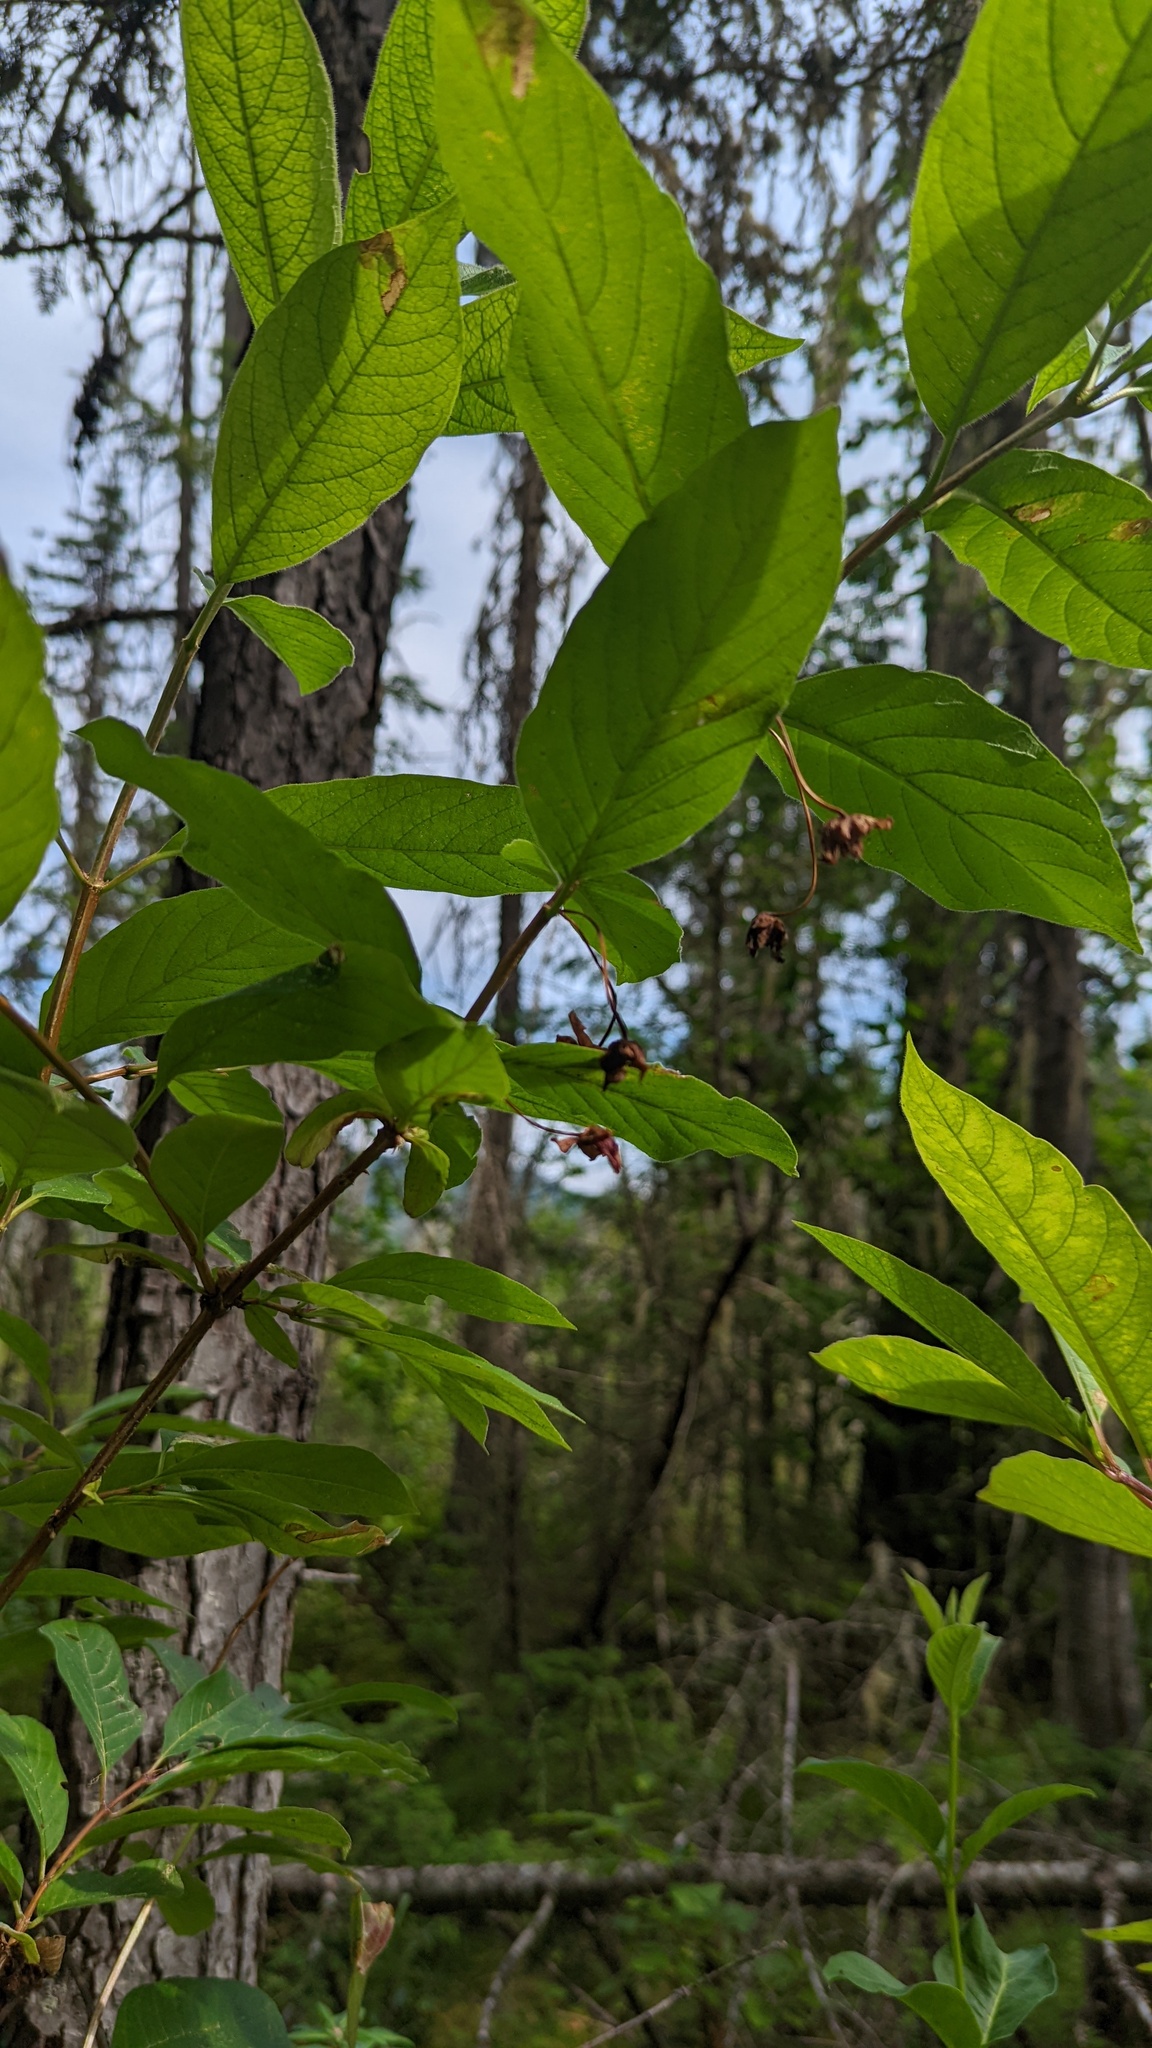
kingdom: Plantae
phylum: Tracheophyta
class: Magnoliopsida
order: Dipsacales
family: Caprifoliaceae
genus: Lonicera
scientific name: Lonicera involucrata
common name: Californian honeysuckle
